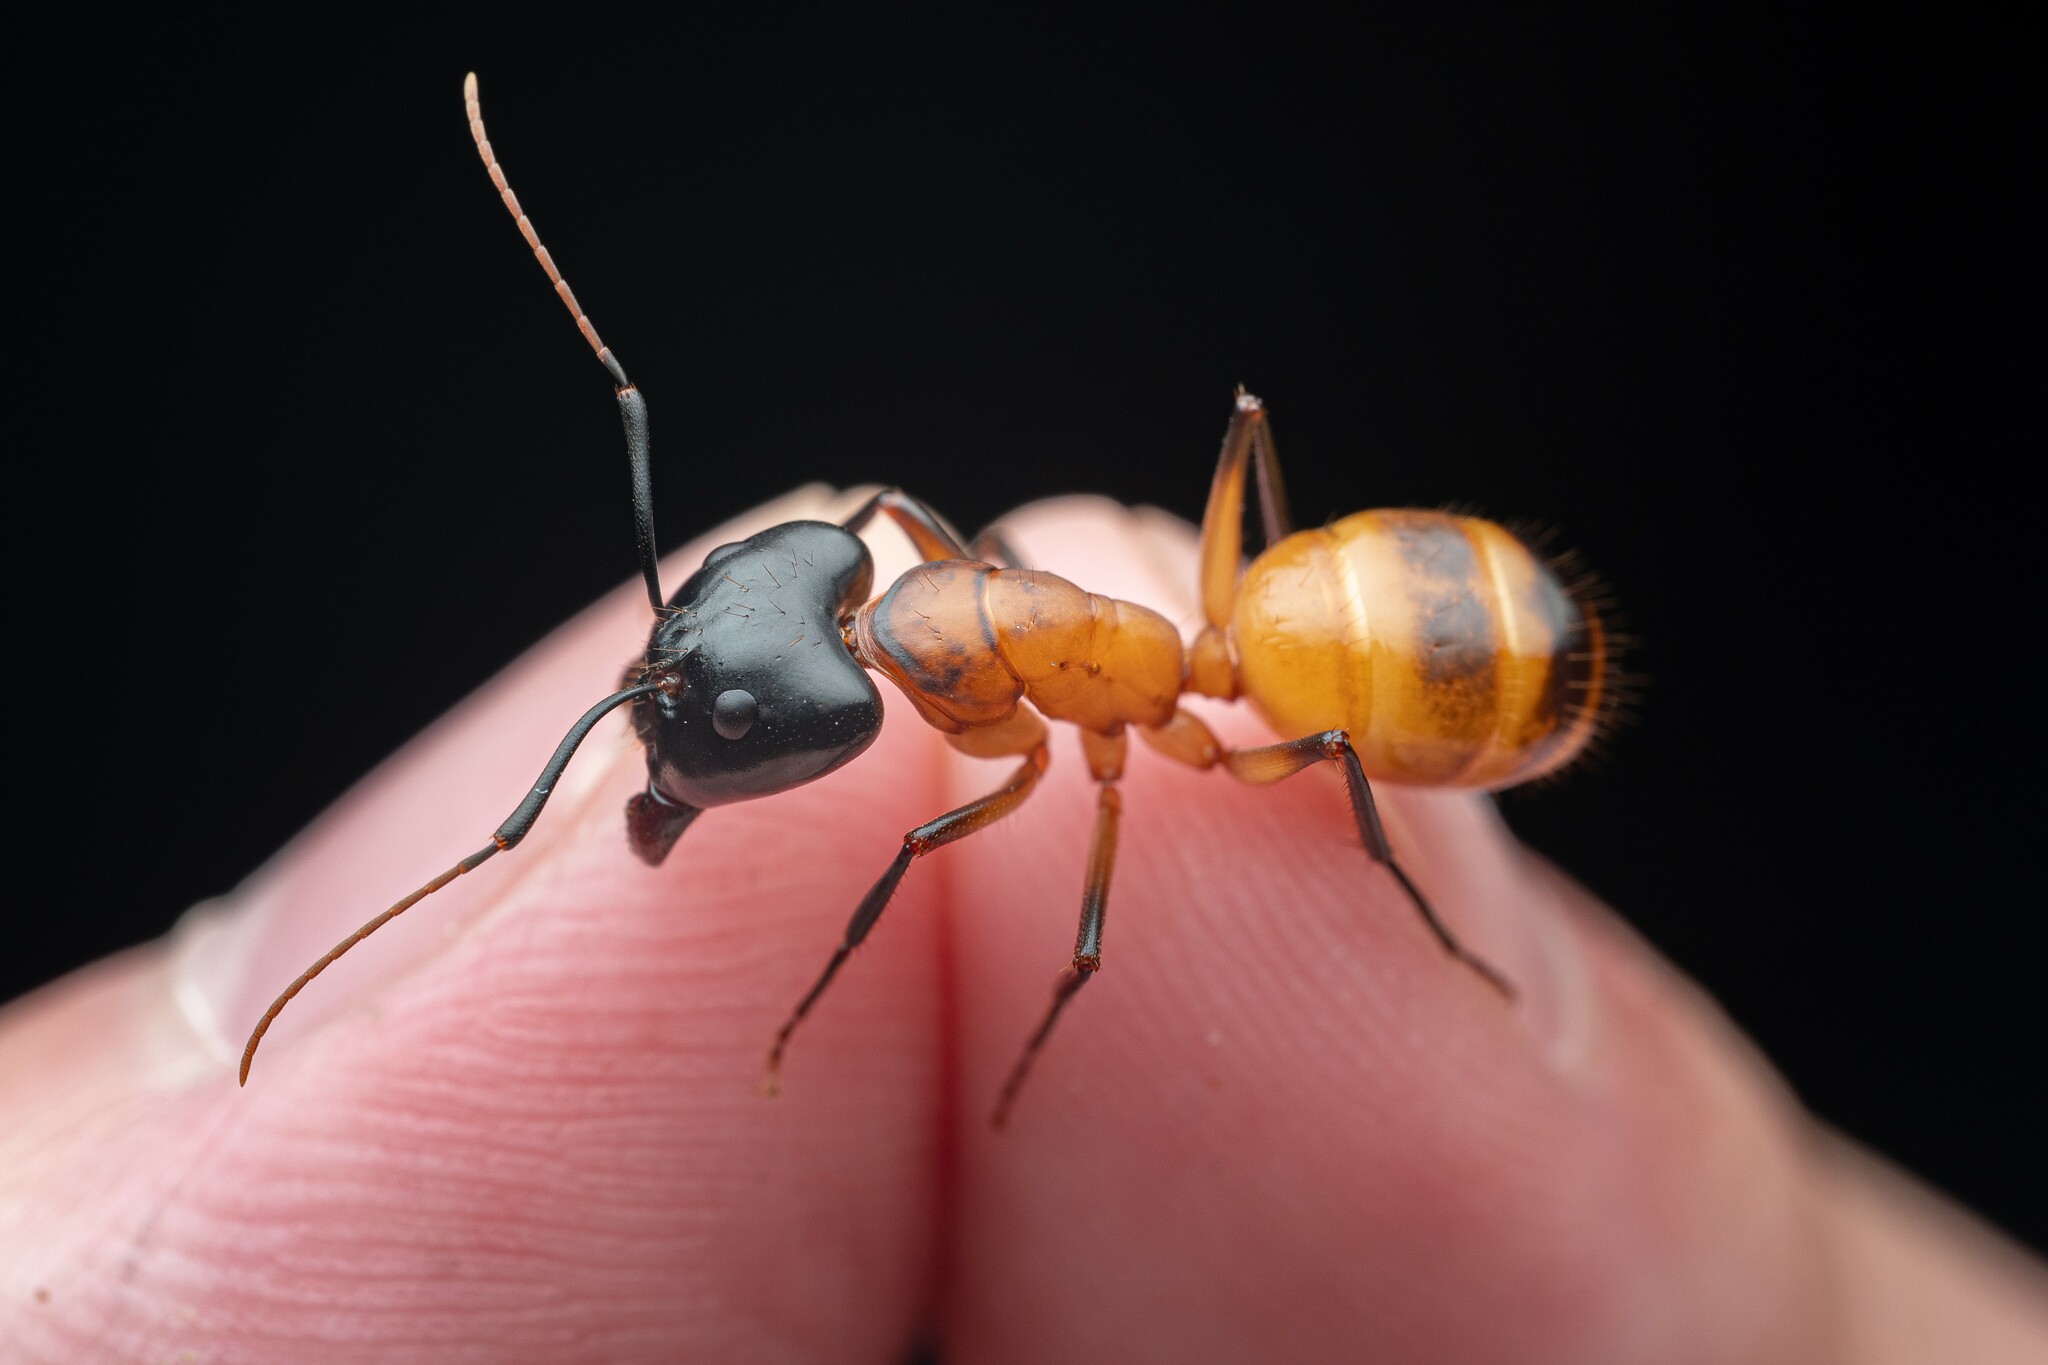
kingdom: Animalia
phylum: Arthropoda
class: Insecta
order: Hymenoptera
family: Formicidae
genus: Camponotus
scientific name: Camponotus ocreatus
